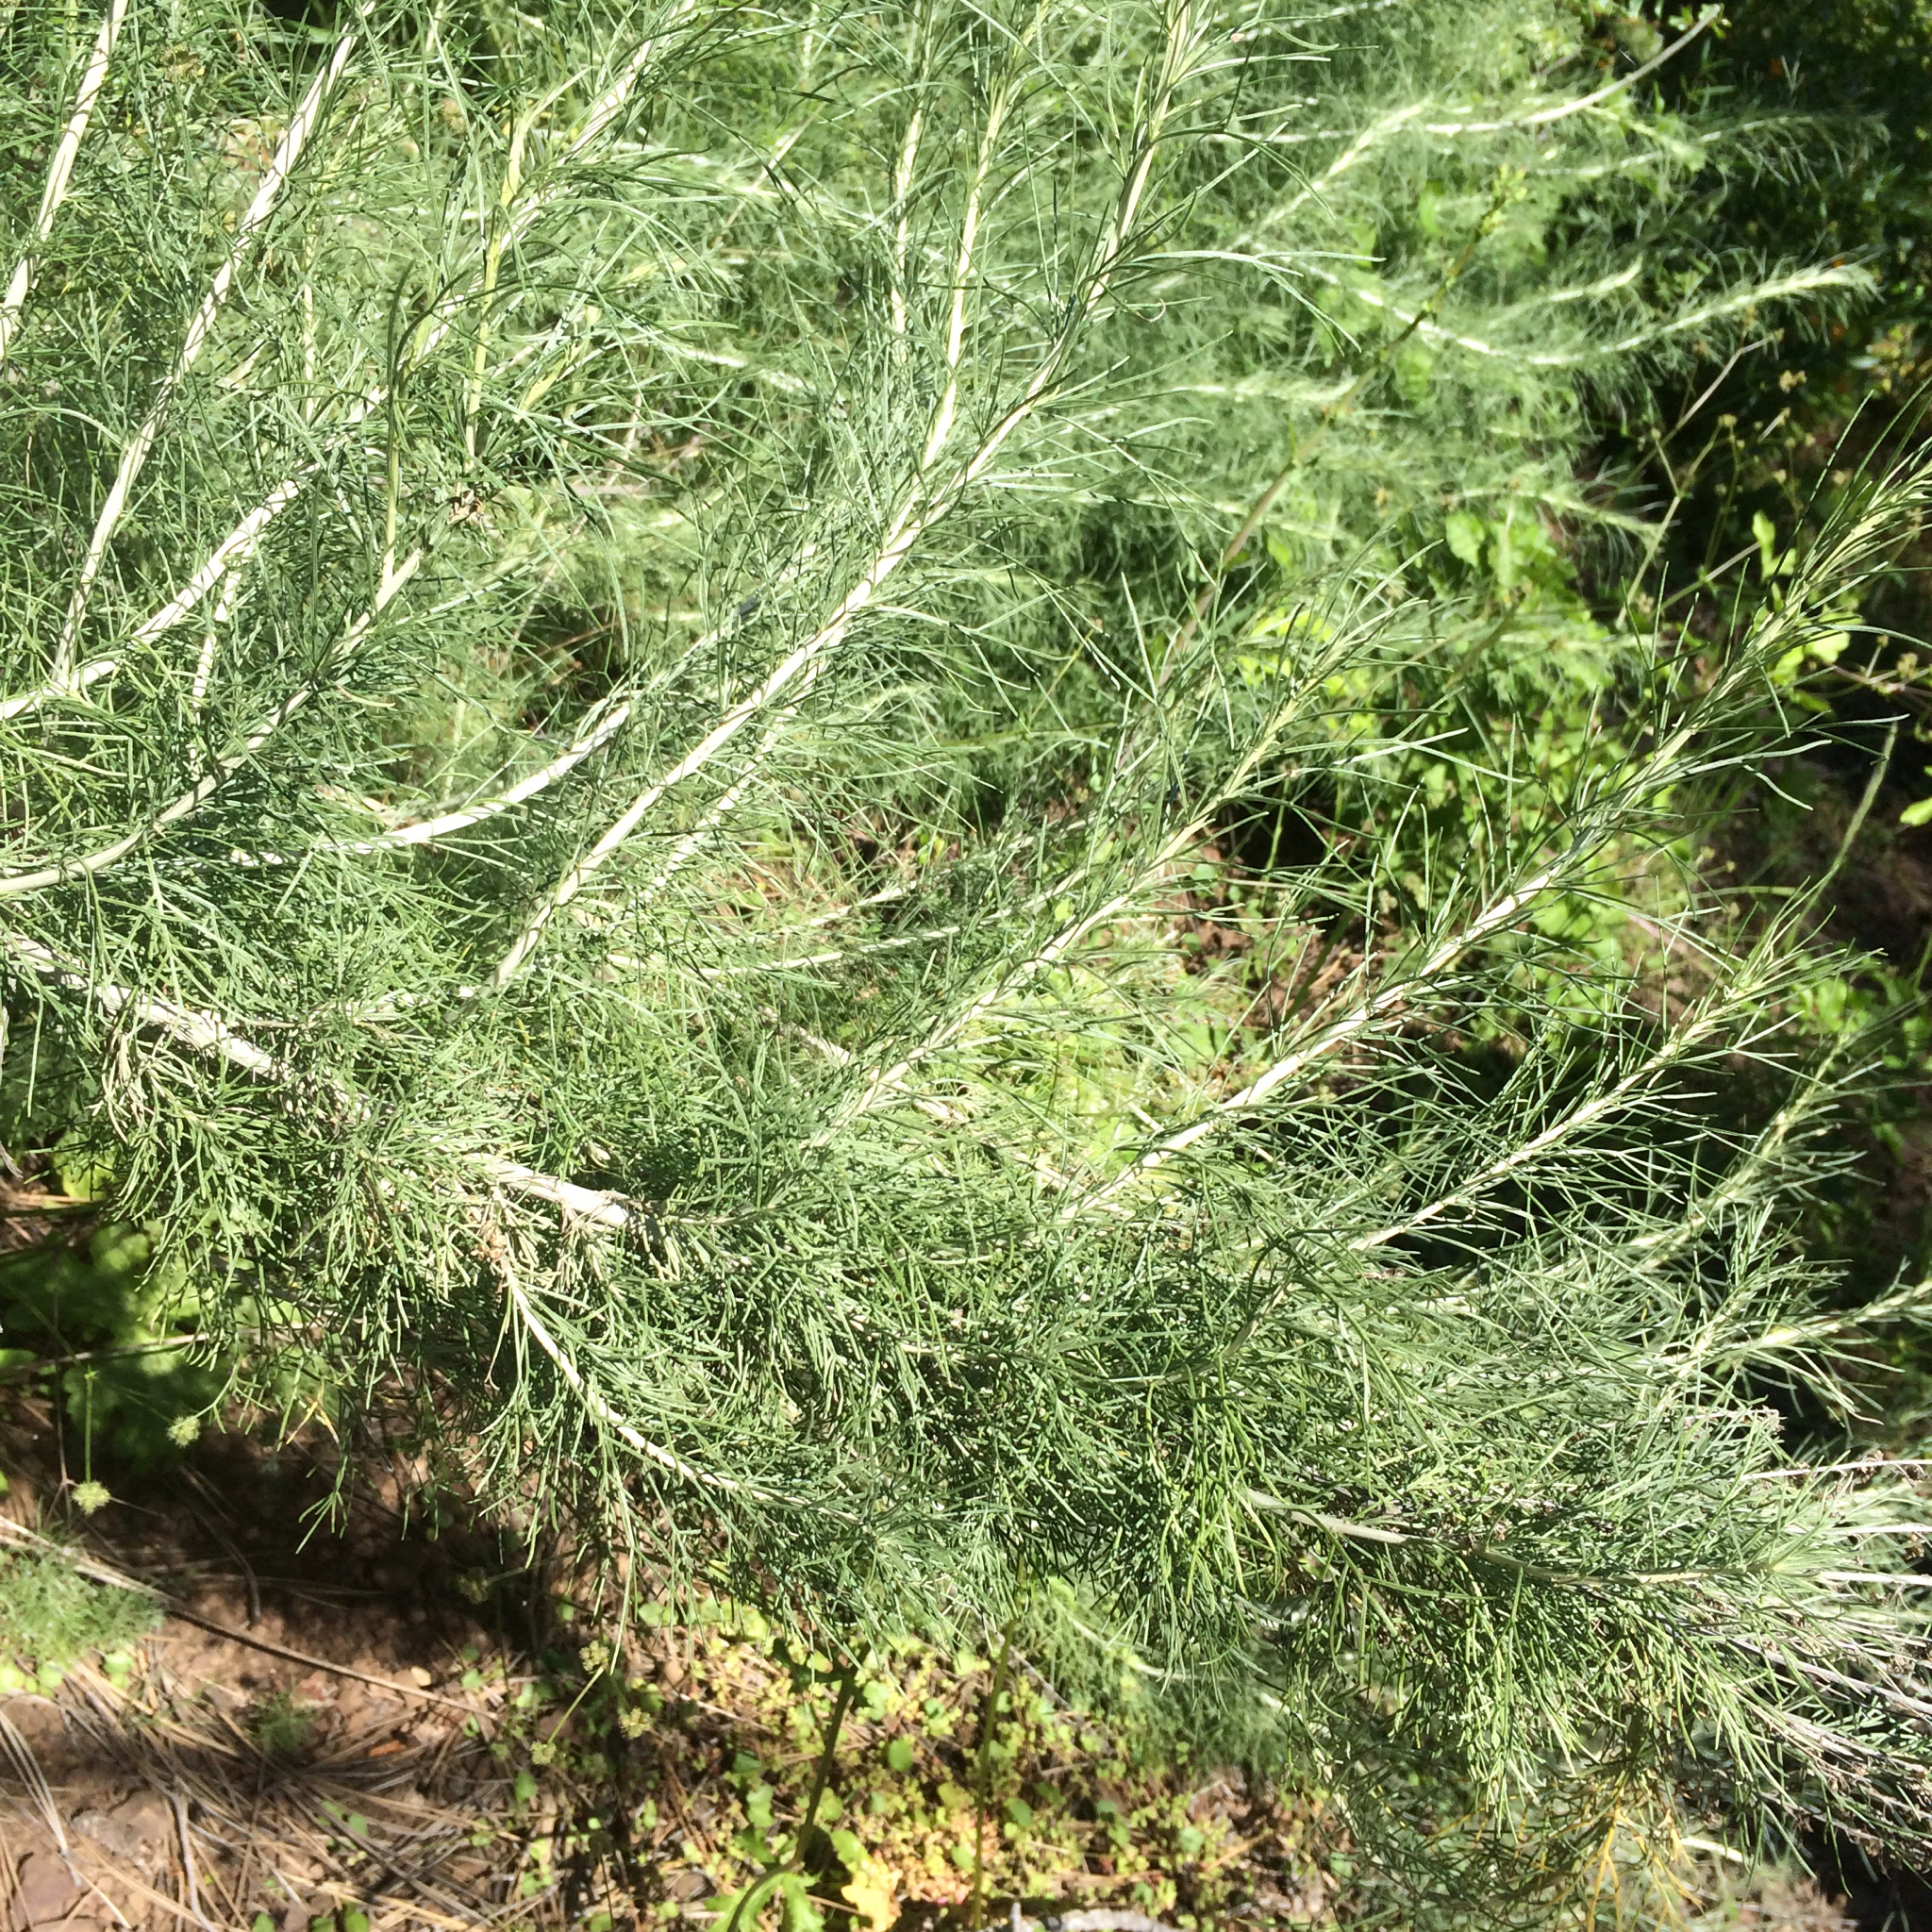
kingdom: Plantae
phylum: Tracheophyta
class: Magnoliopsida
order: Asterales
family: Asteraceae
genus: Artemisia
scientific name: Artemisia californica
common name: California sagebrush
